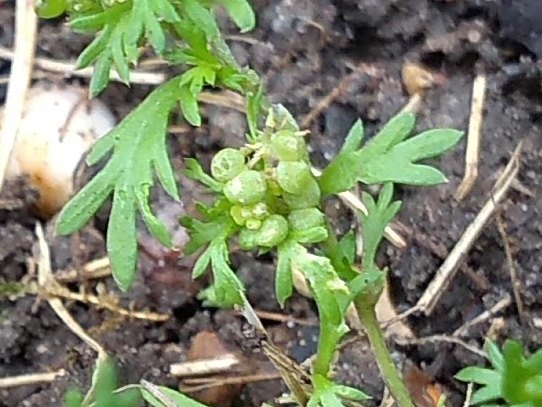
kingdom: Plantae
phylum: Tracheophyta
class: Magnoliopsida
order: Brassicales
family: Brassicaceae
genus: Lepidium
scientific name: Lepidium didymum
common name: Lesser swinecress
